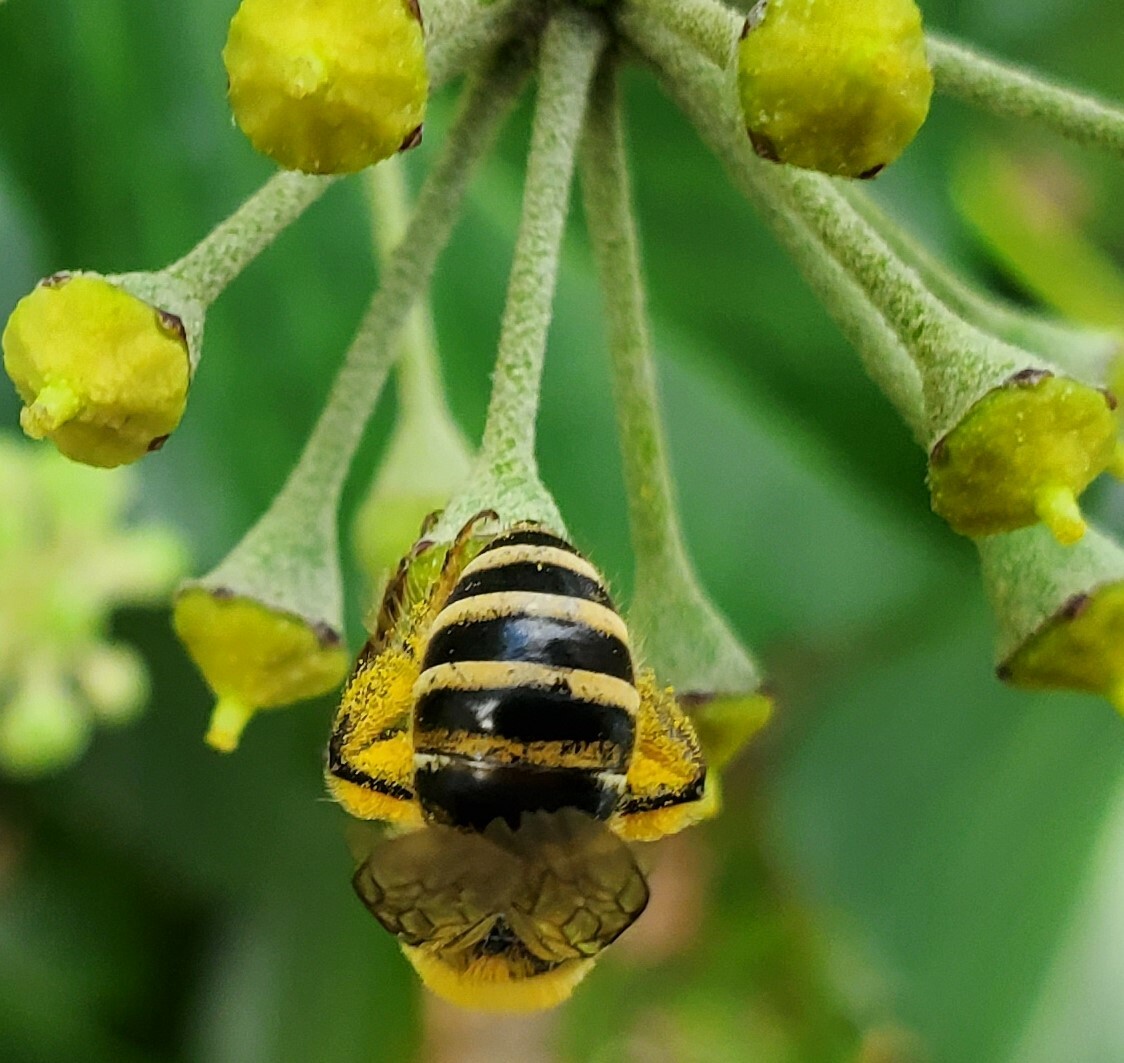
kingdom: Animalia
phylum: Arthropoda
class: Insecta
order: Hymenoptera
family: Colletidae
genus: Colletes
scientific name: Colletes hederae
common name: Ivy bee
